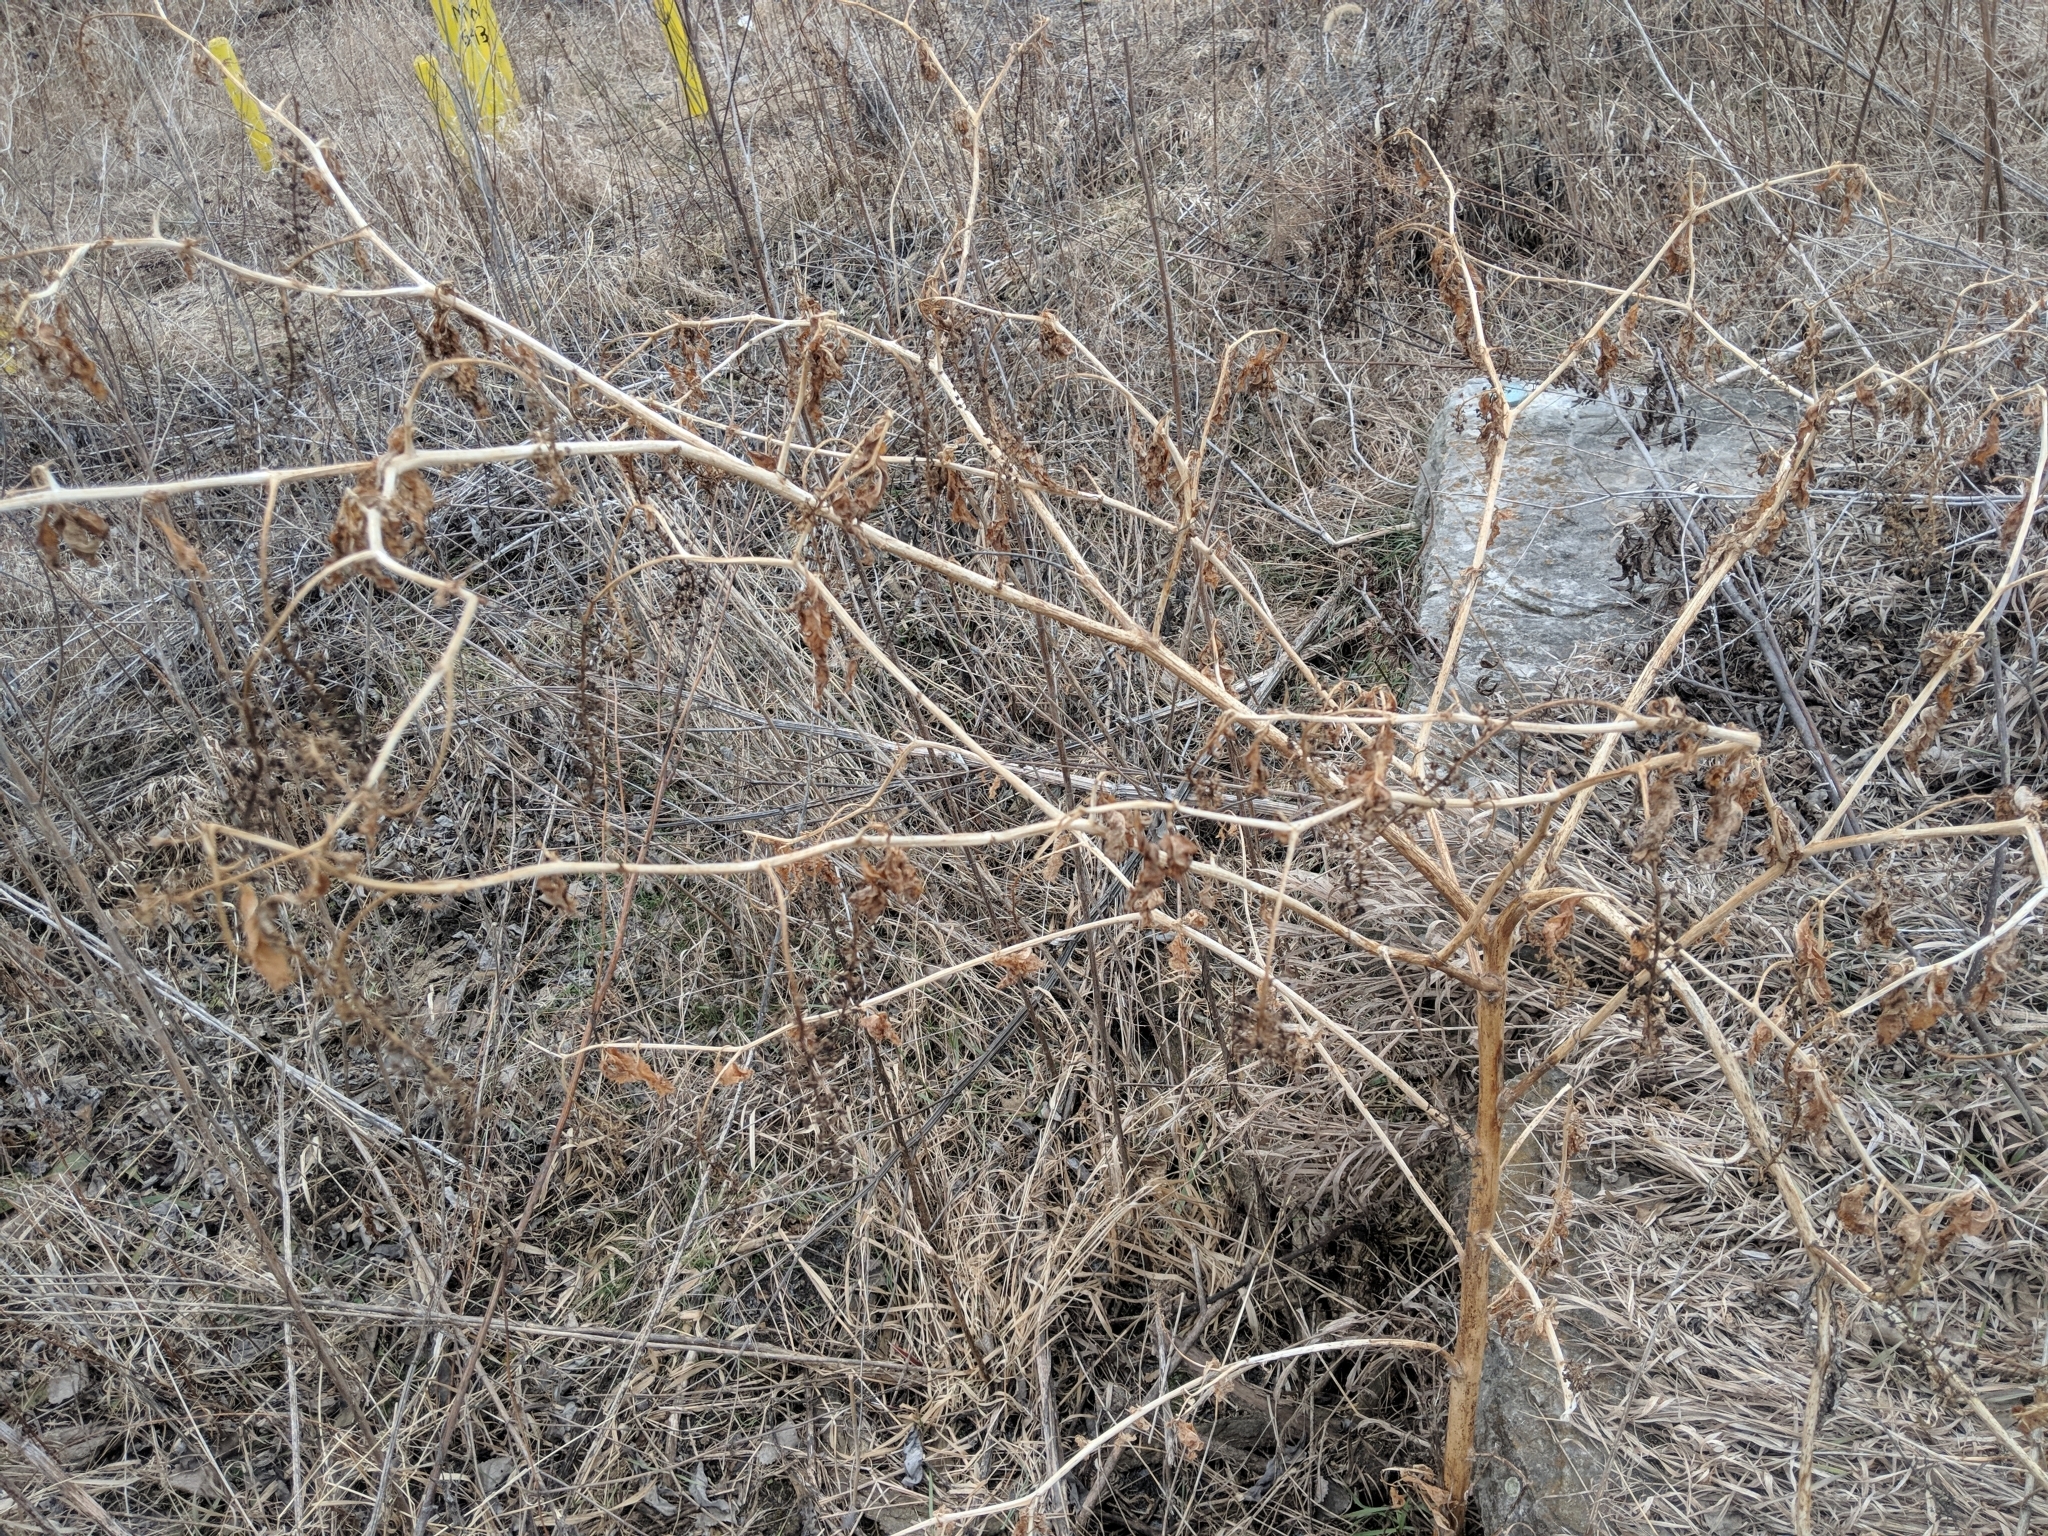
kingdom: Plantae
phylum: Tracheophyta
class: Magnoliopsida
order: Caryophyllales
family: Phytolaccaceae
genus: Phytolacca
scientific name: Phytolacca americana
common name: American pokeweed
